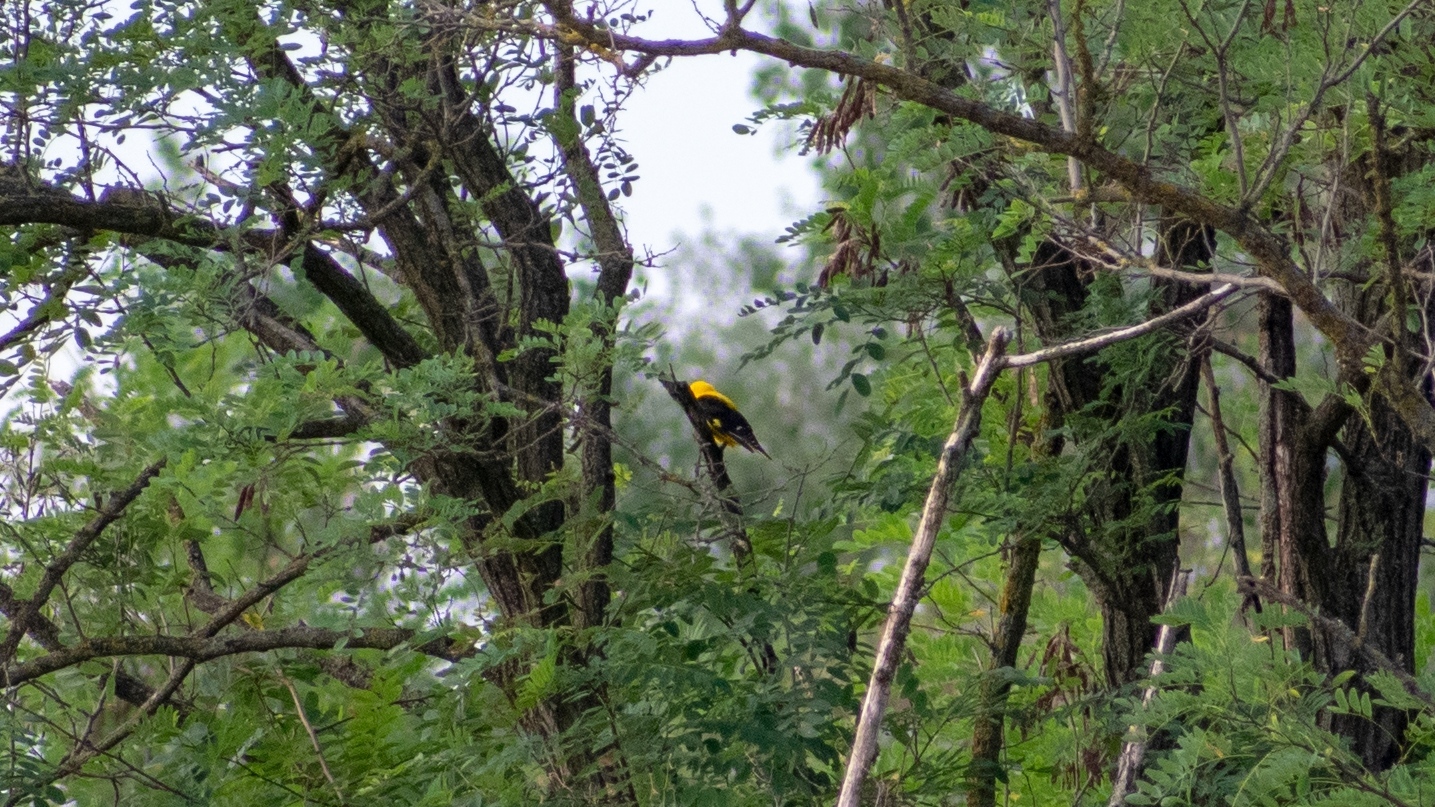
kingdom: Animalia
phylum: Chordata
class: Aves
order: Passeriformes
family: Oriolidae
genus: Oriolus
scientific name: Oriolus oriolus
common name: Eurasian golden oriole
